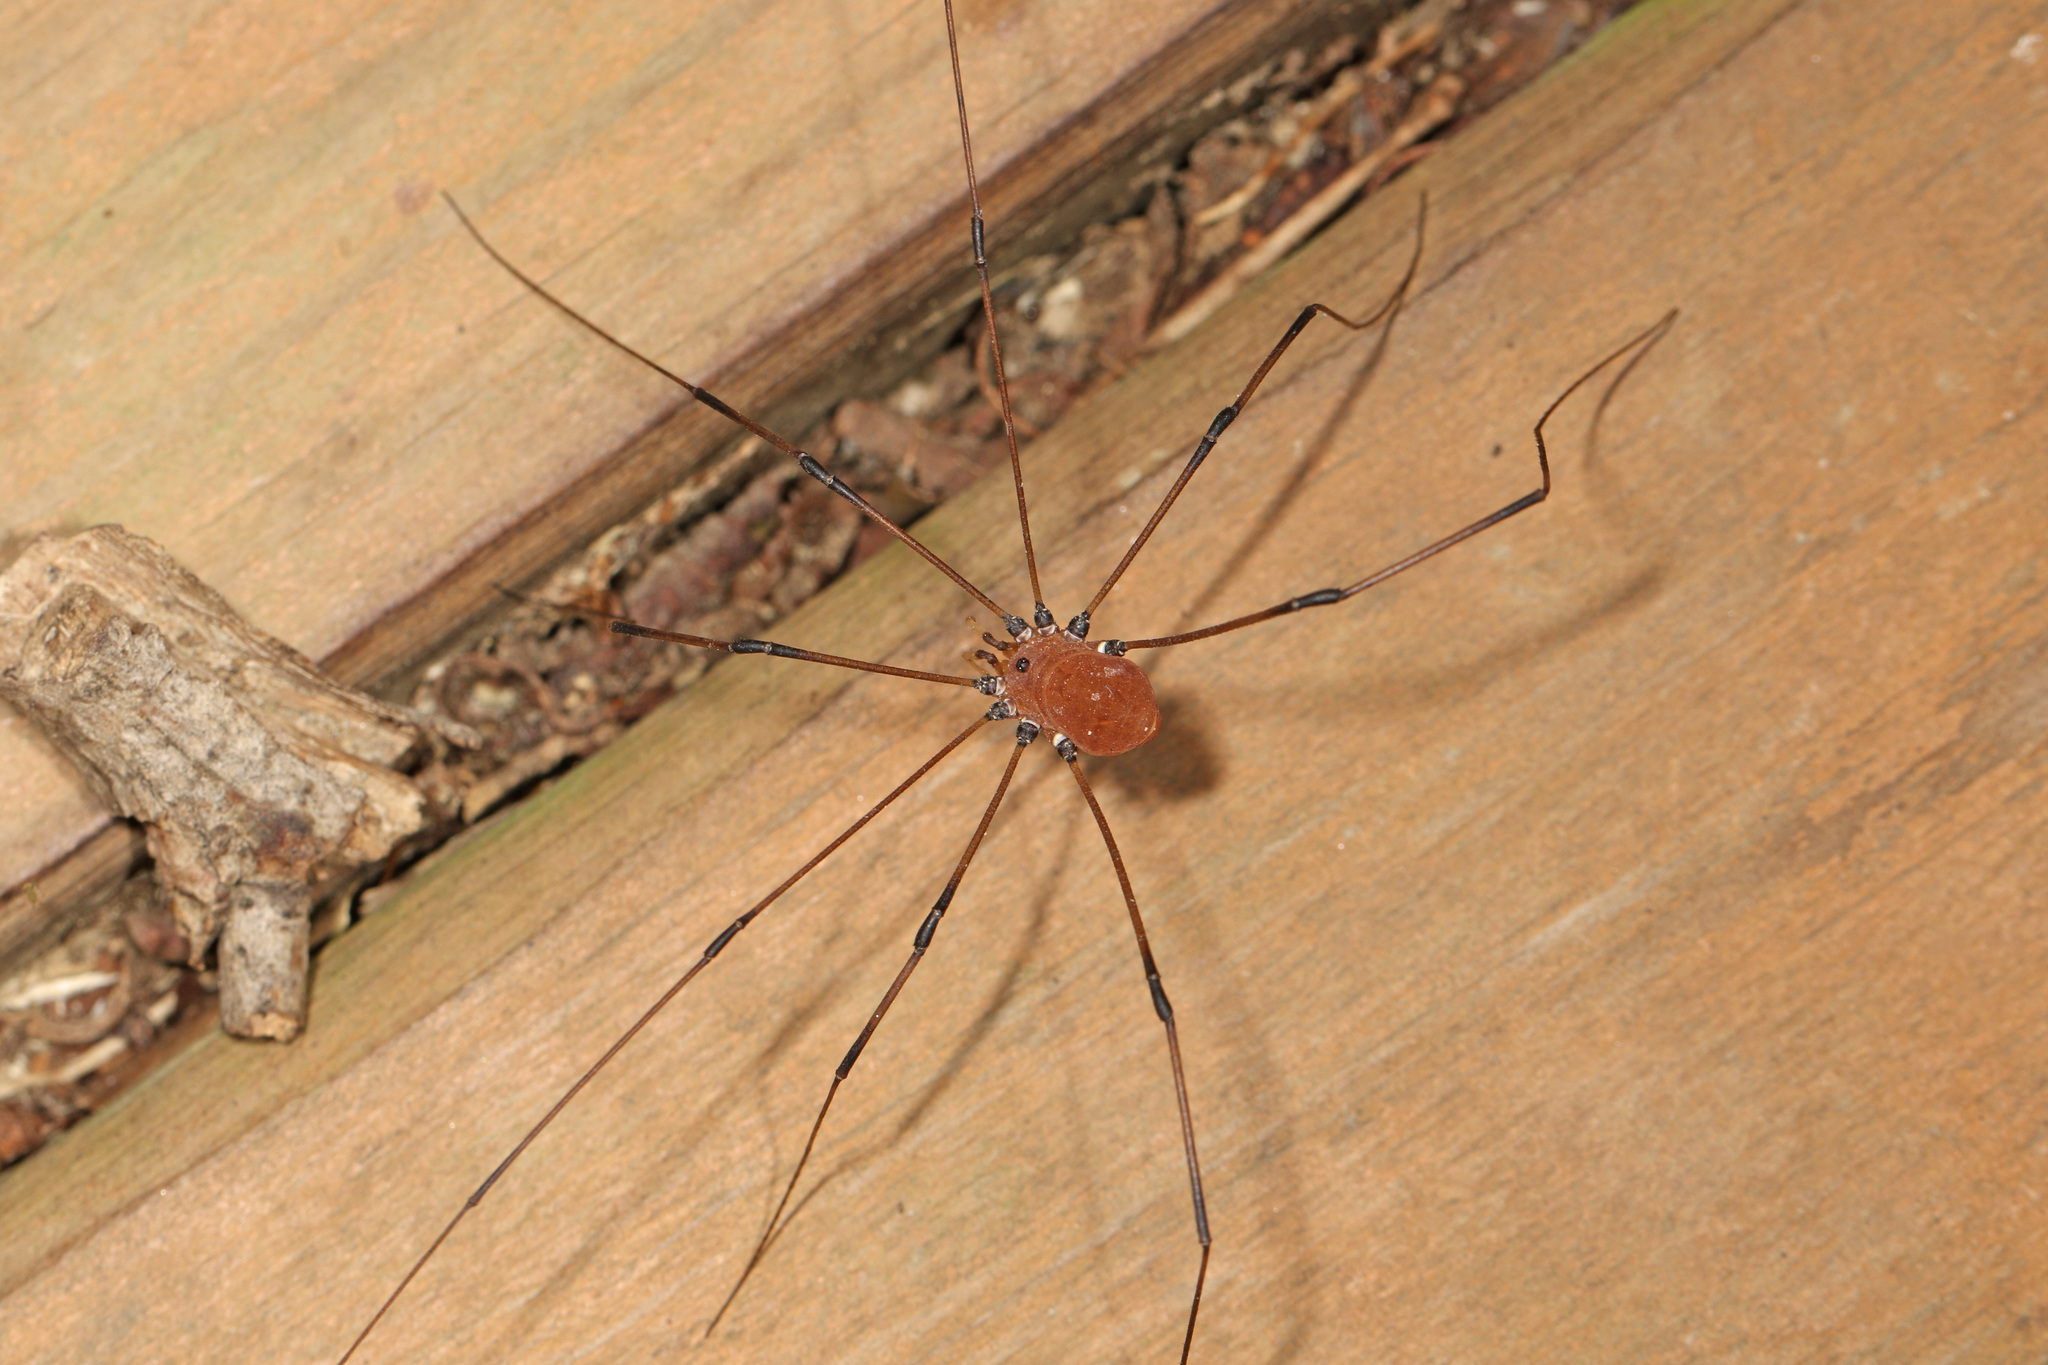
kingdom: Animalia
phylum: Arthropoda
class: Arachnida
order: Opiliones
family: Sclerosomatidae
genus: Leiobunum
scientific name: Leiobunum
